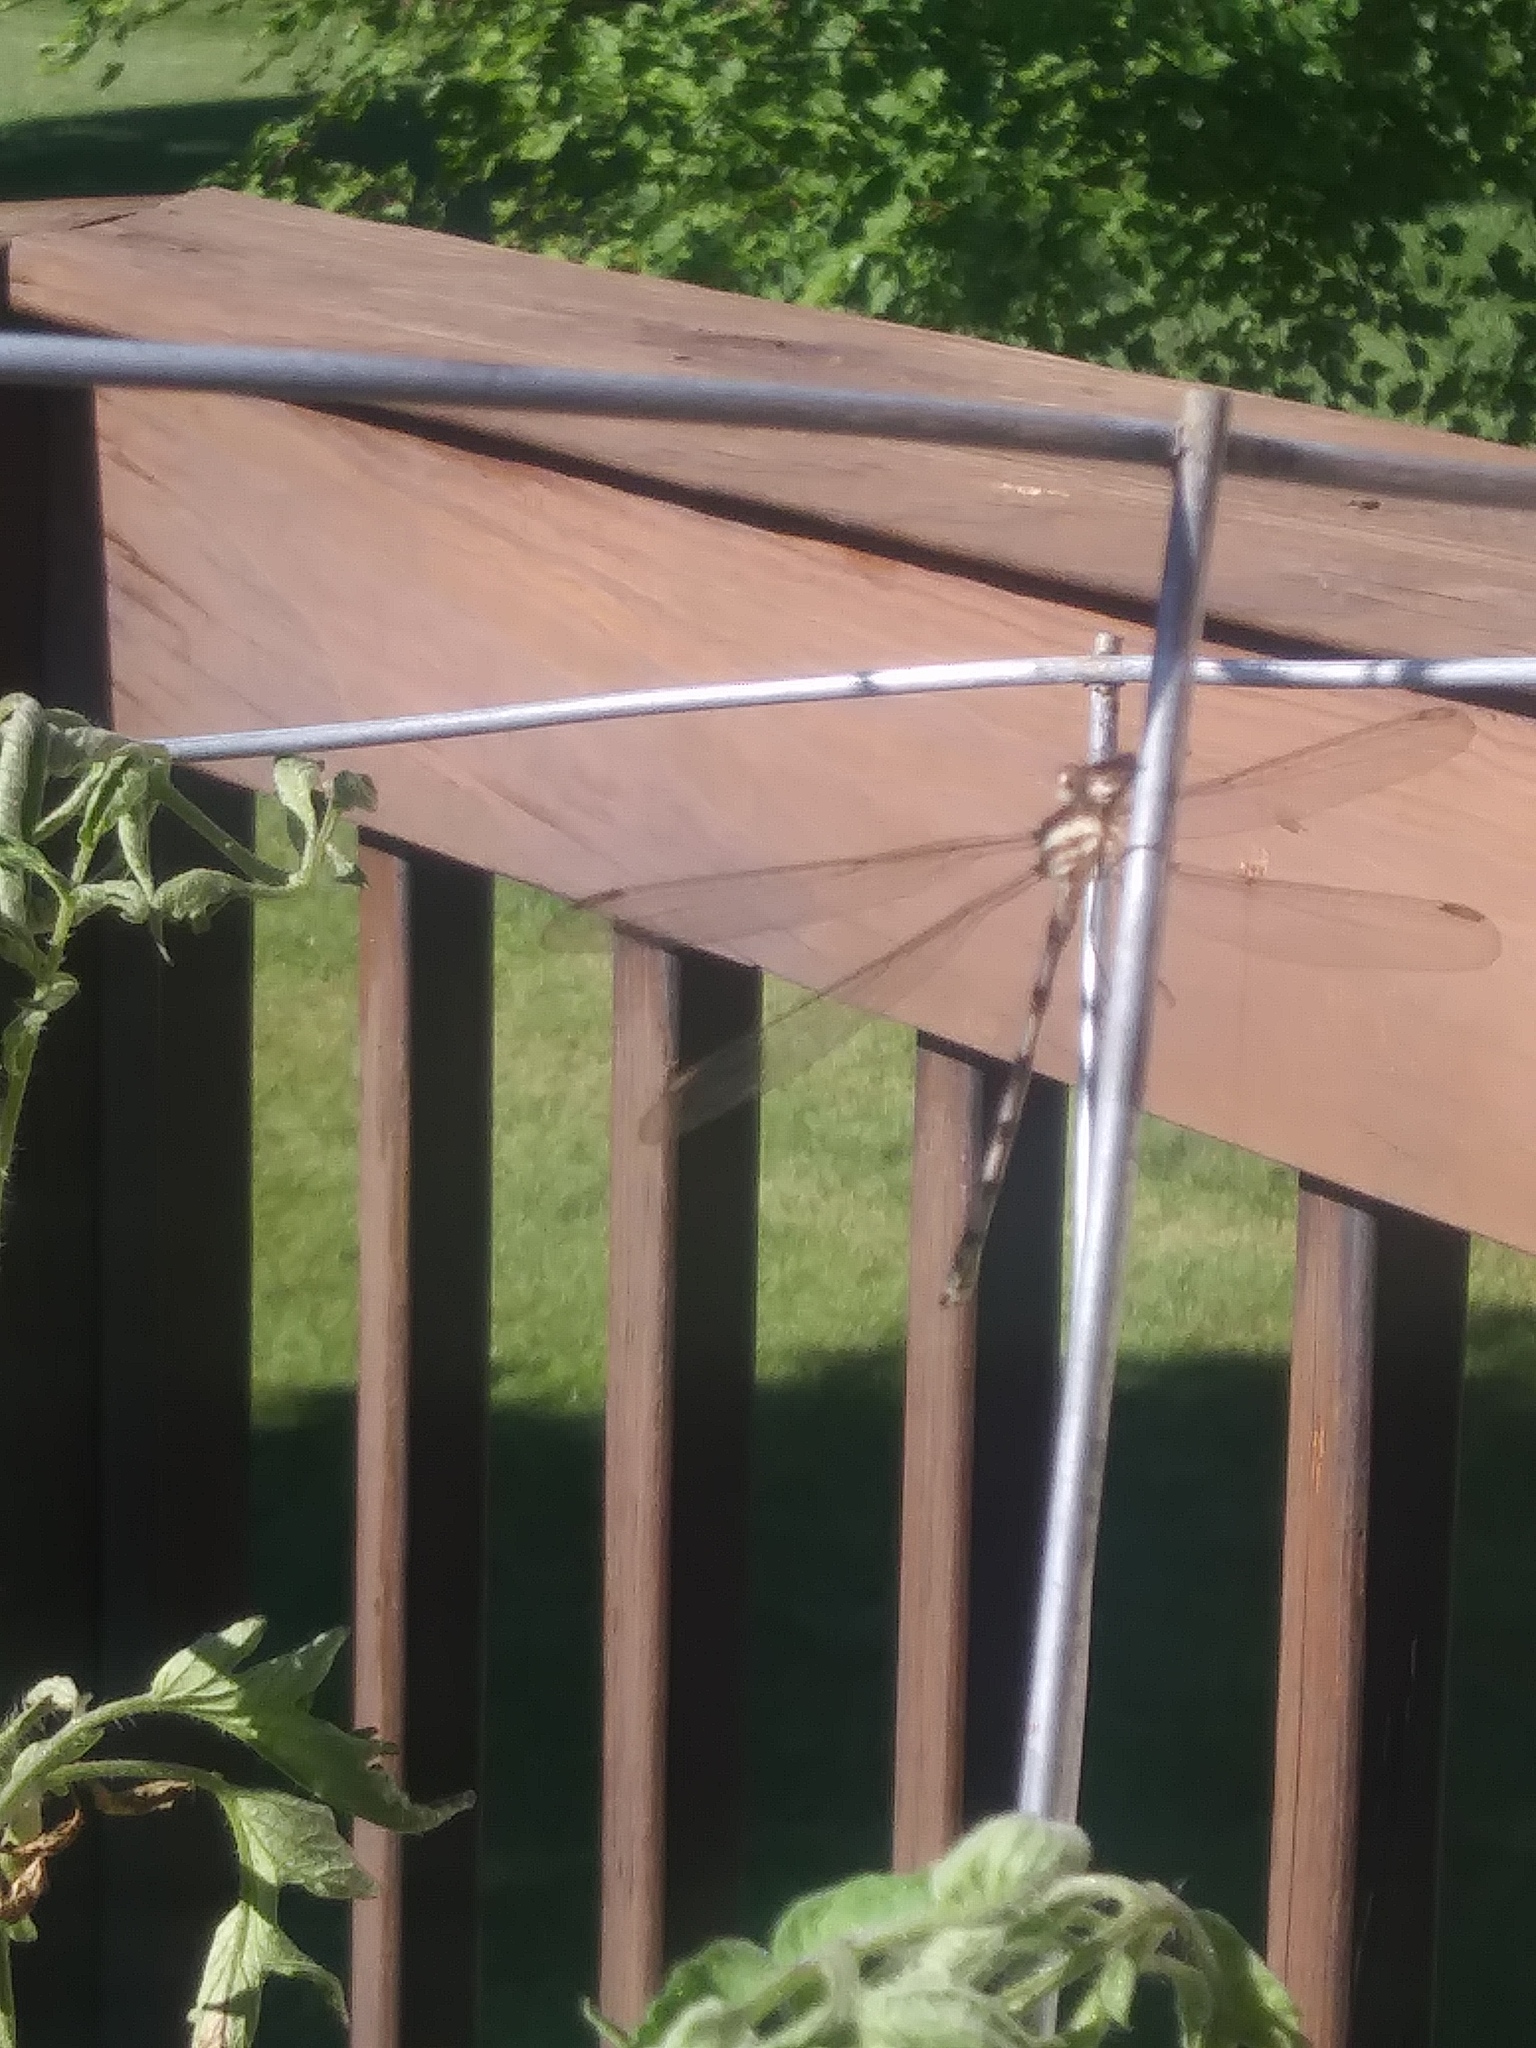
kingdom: Animalia
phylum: Arthropoda
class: Insecta
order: Odonata
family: Lestidae
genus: Archilestes
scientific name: Archilestes grandis
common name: Great spreadwing
